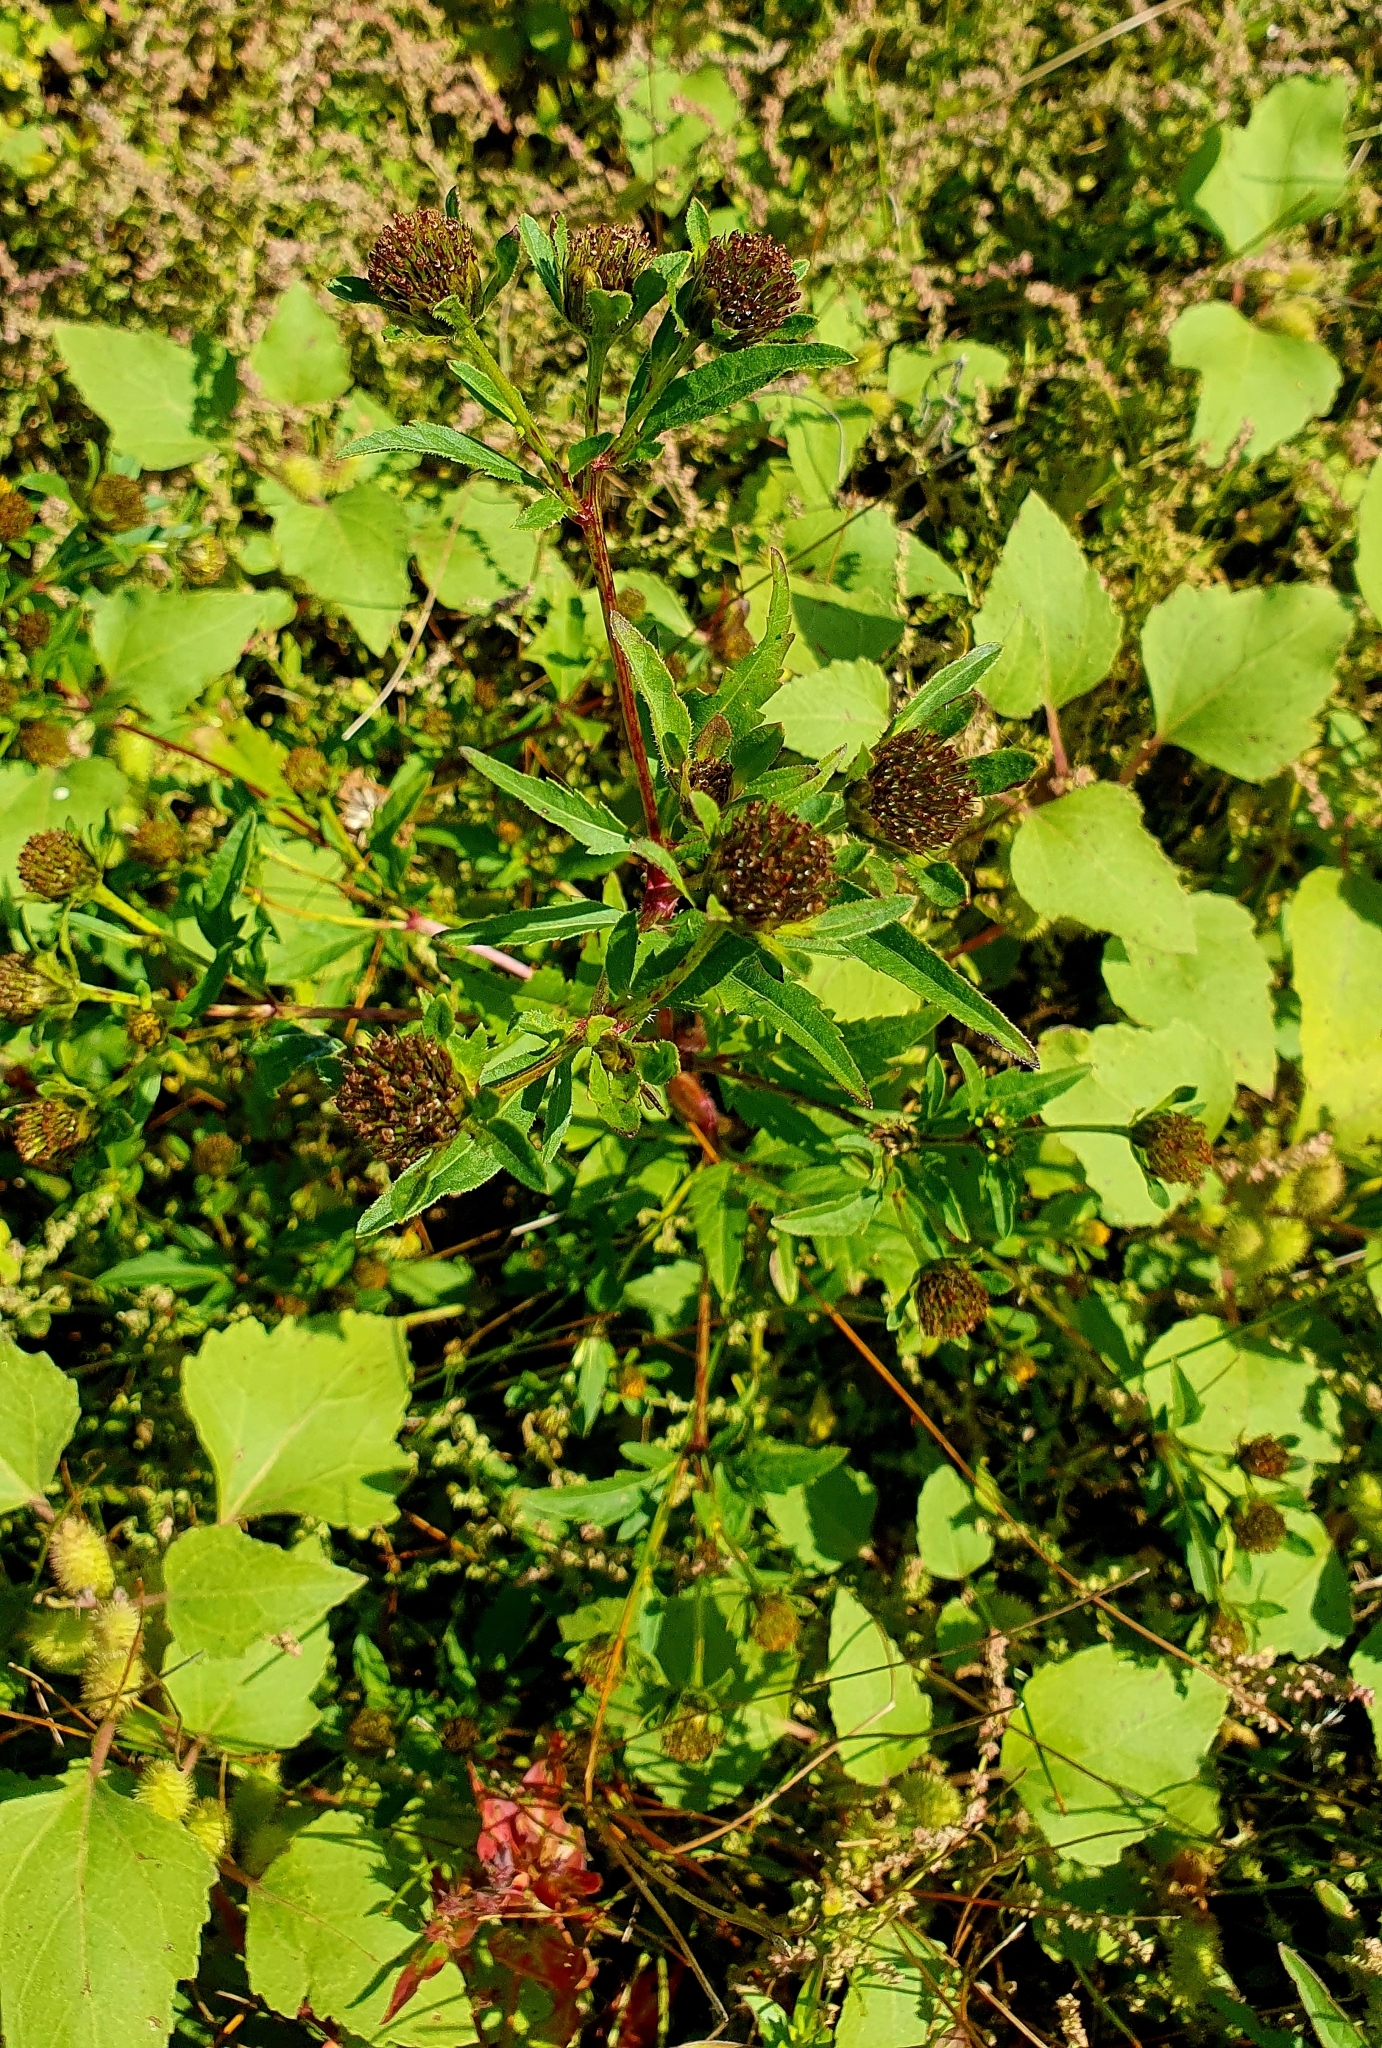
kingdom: Plantae
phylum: Tracheophyta
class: Magnoliopsida
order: Asterales
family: Asteraceae
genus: Bidens
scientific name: Bidens tripartita
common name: Trifid bur-marigold
